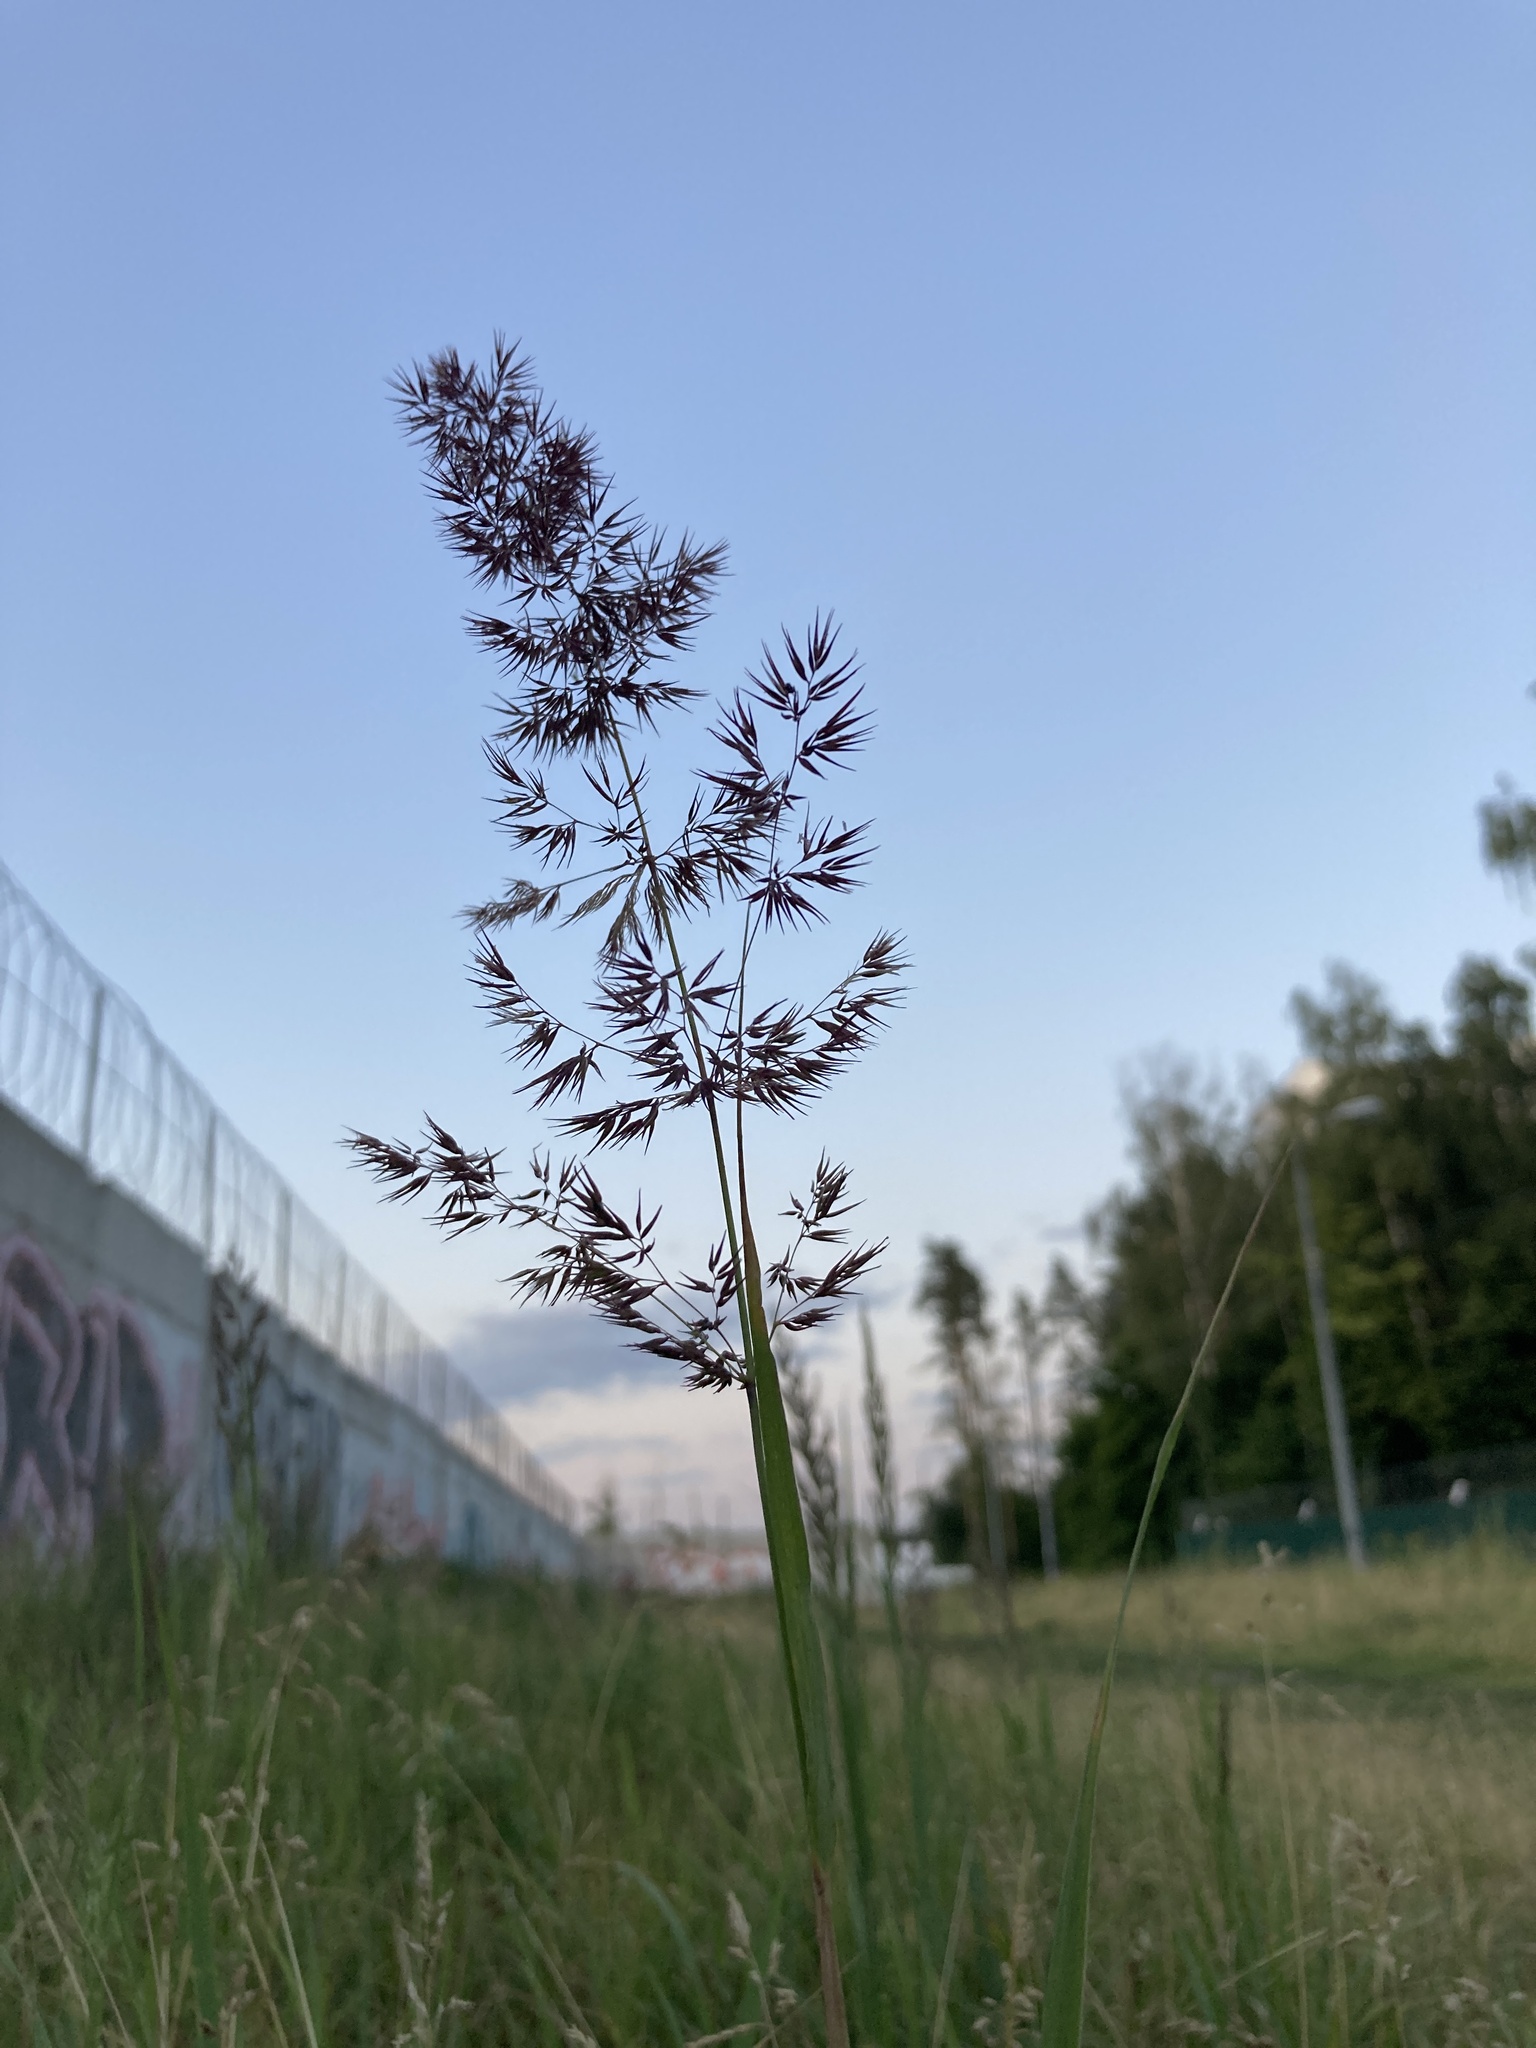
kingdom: Plantae
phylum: Tracheophyta
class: Liliopsida
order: Poales
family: Poaceae
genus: Calamagrostis
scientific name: Calamagrostis epigejos
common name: Wood small-reed
